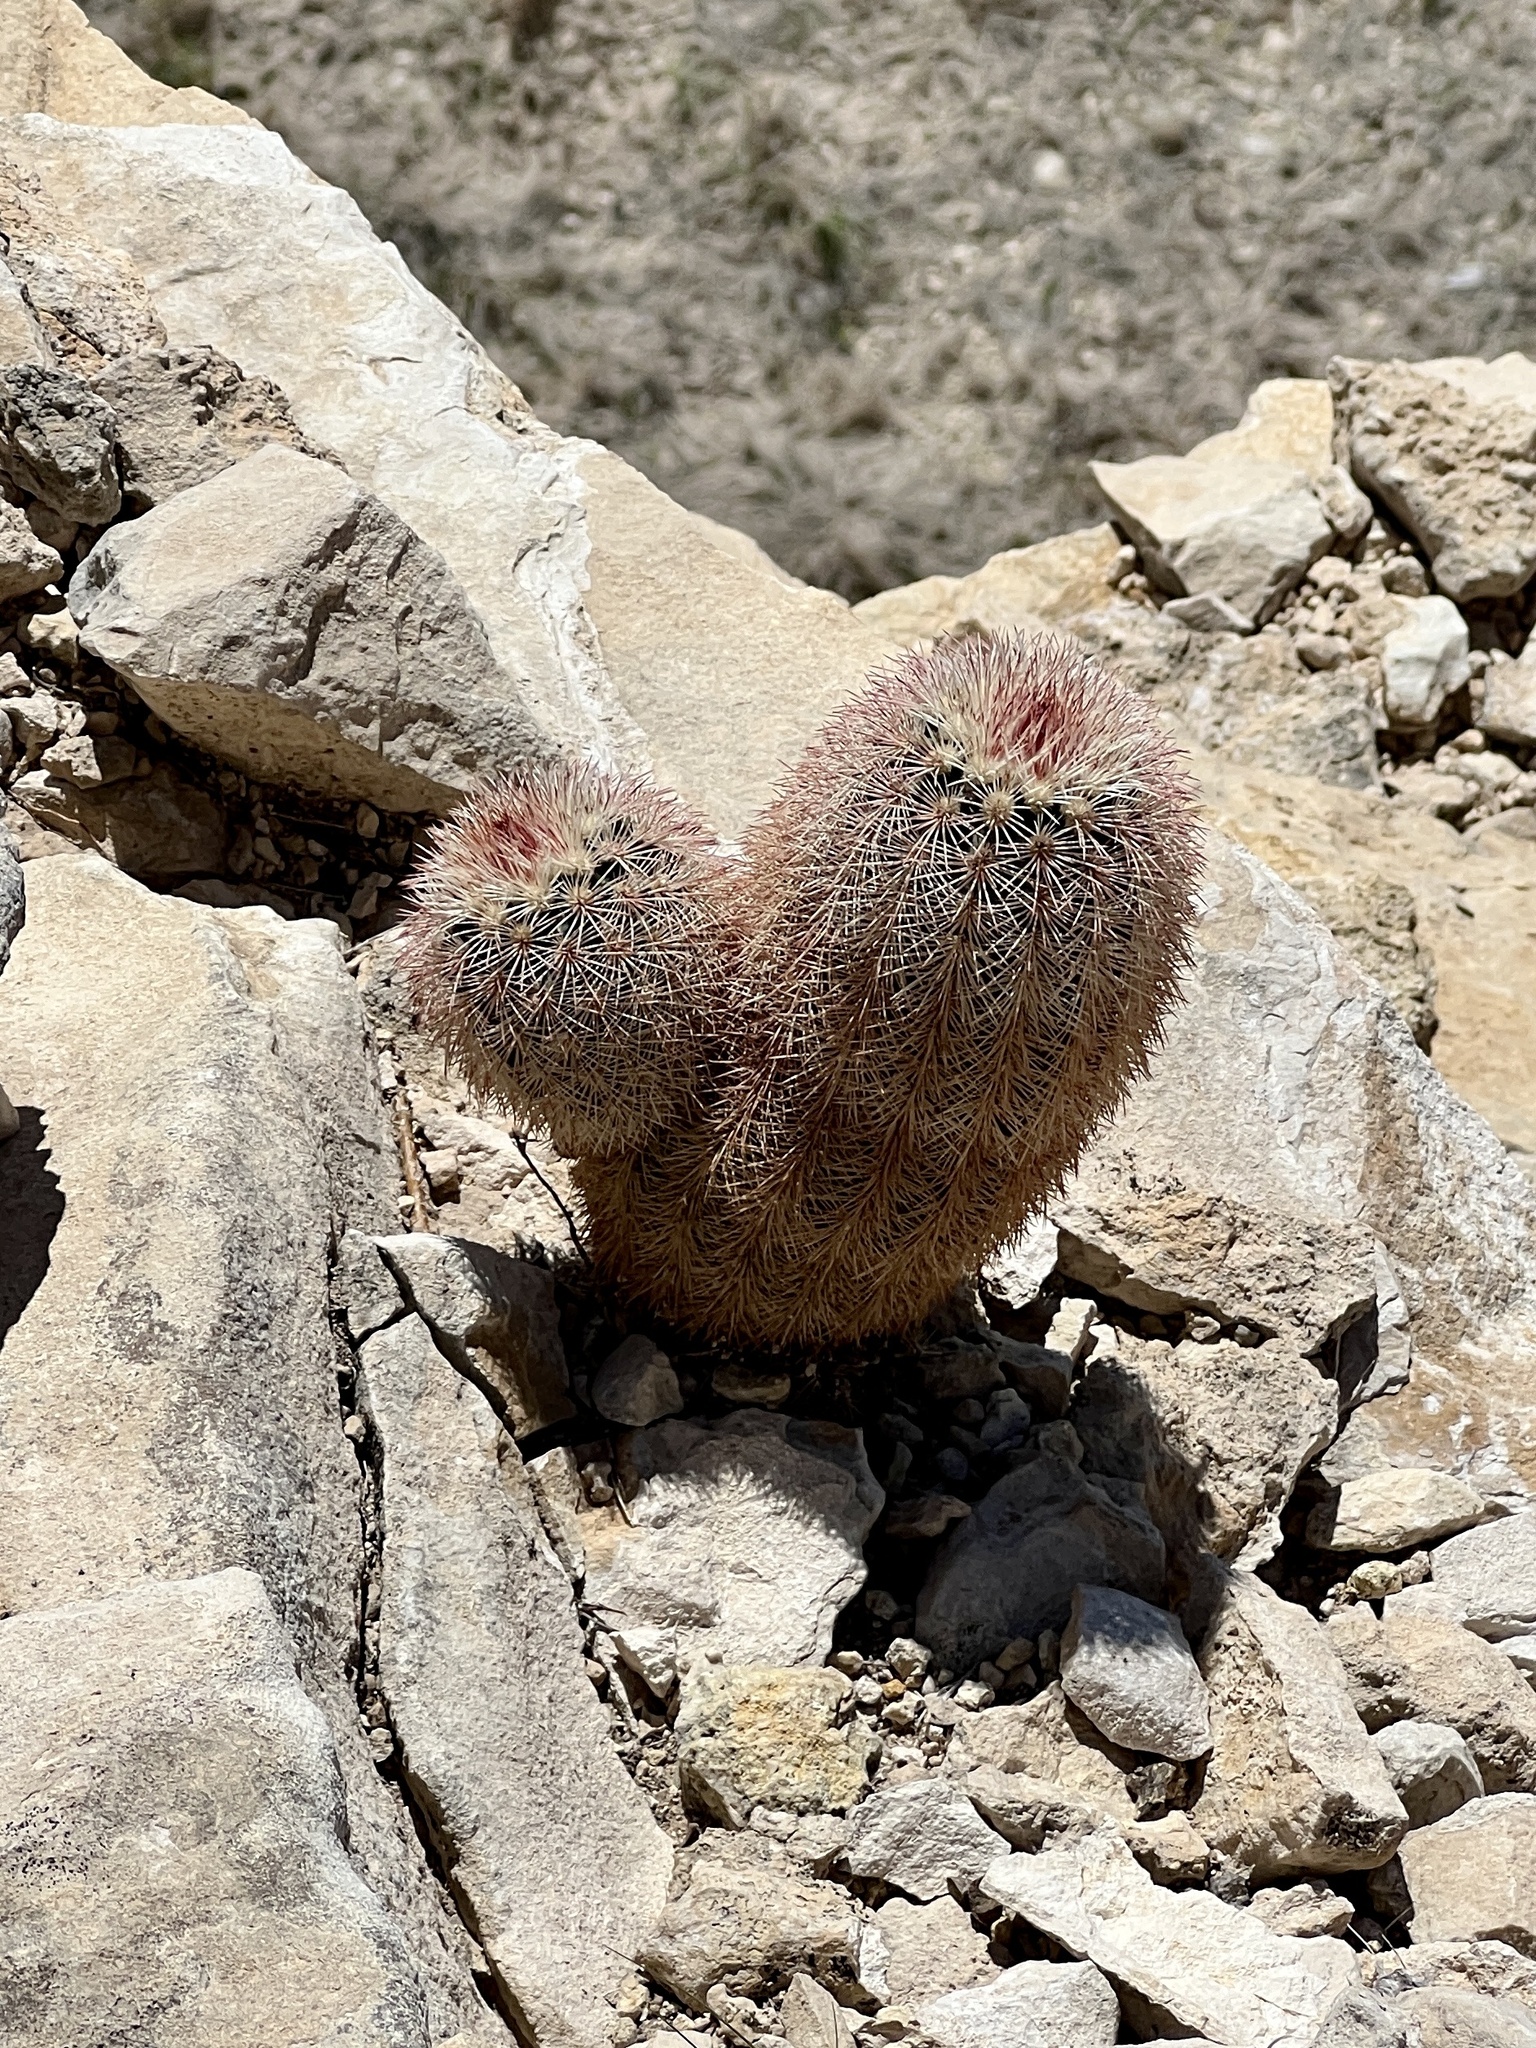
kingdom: Plantae
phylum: Tracheophyta
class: Magnoliopsida
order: Caryophyllales
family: Cactaceae
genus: Echinocereus
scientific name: Echinocereus dasyacanthus
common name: Spiny hedgehog cactus
